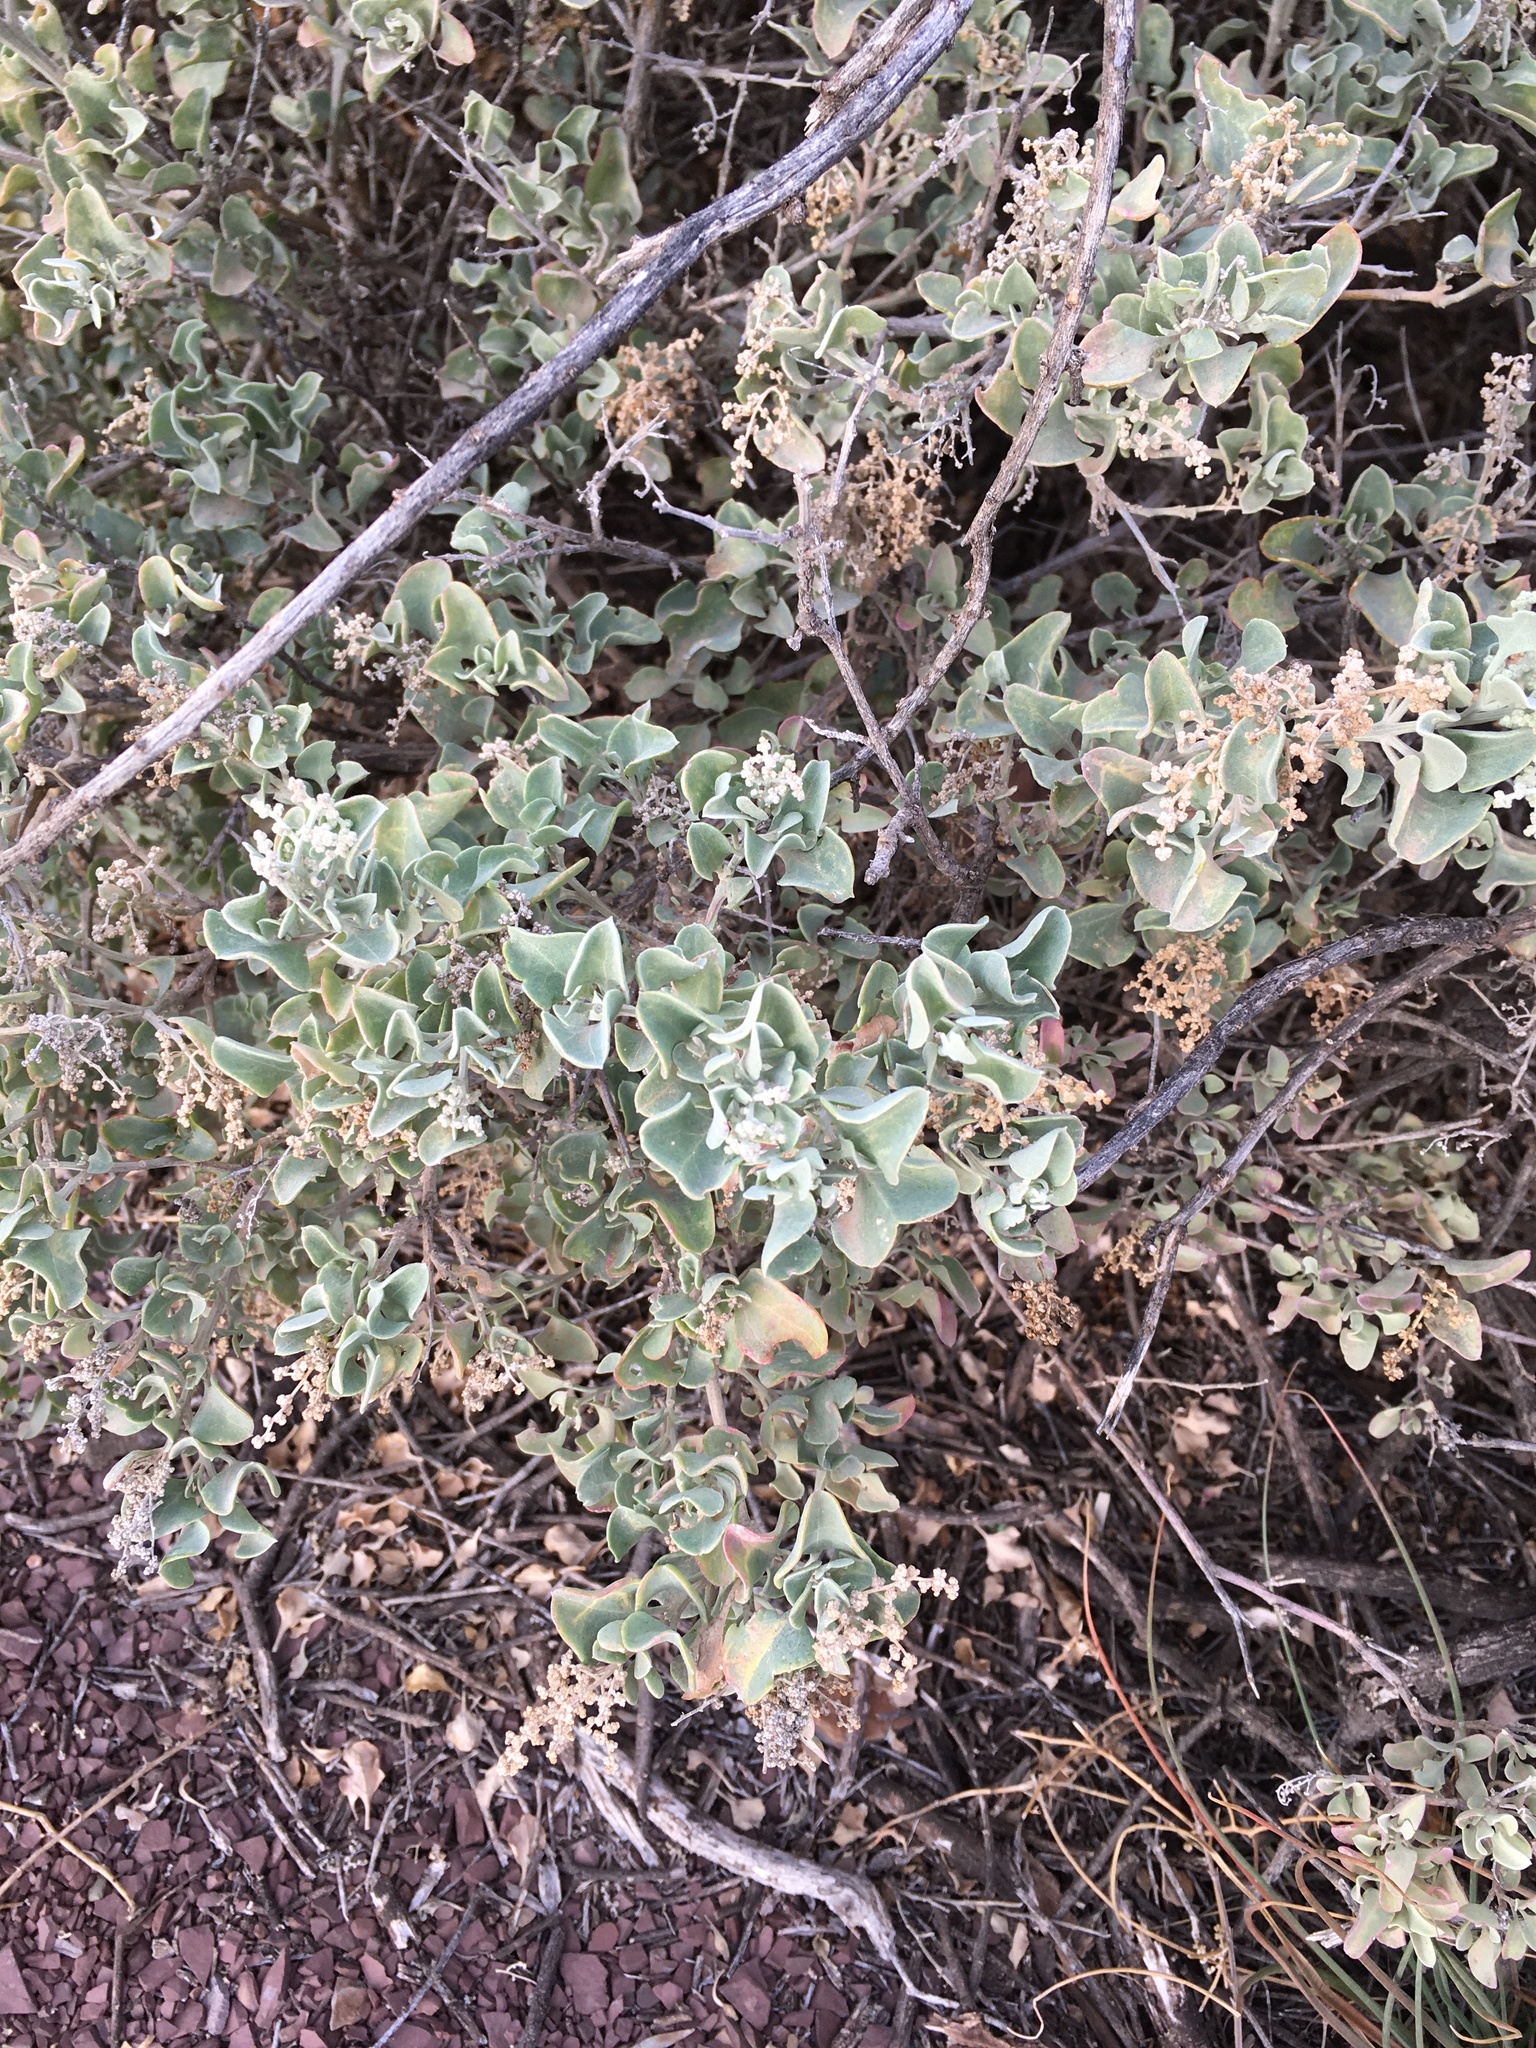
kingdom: Plantae
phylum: Tracheophyta
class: Magnoliopsida
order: Caryophyllales
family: Amaranthaceae
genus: Chenopodium
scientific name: Chenopodium parabolicum
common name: Old-man-saltbush
